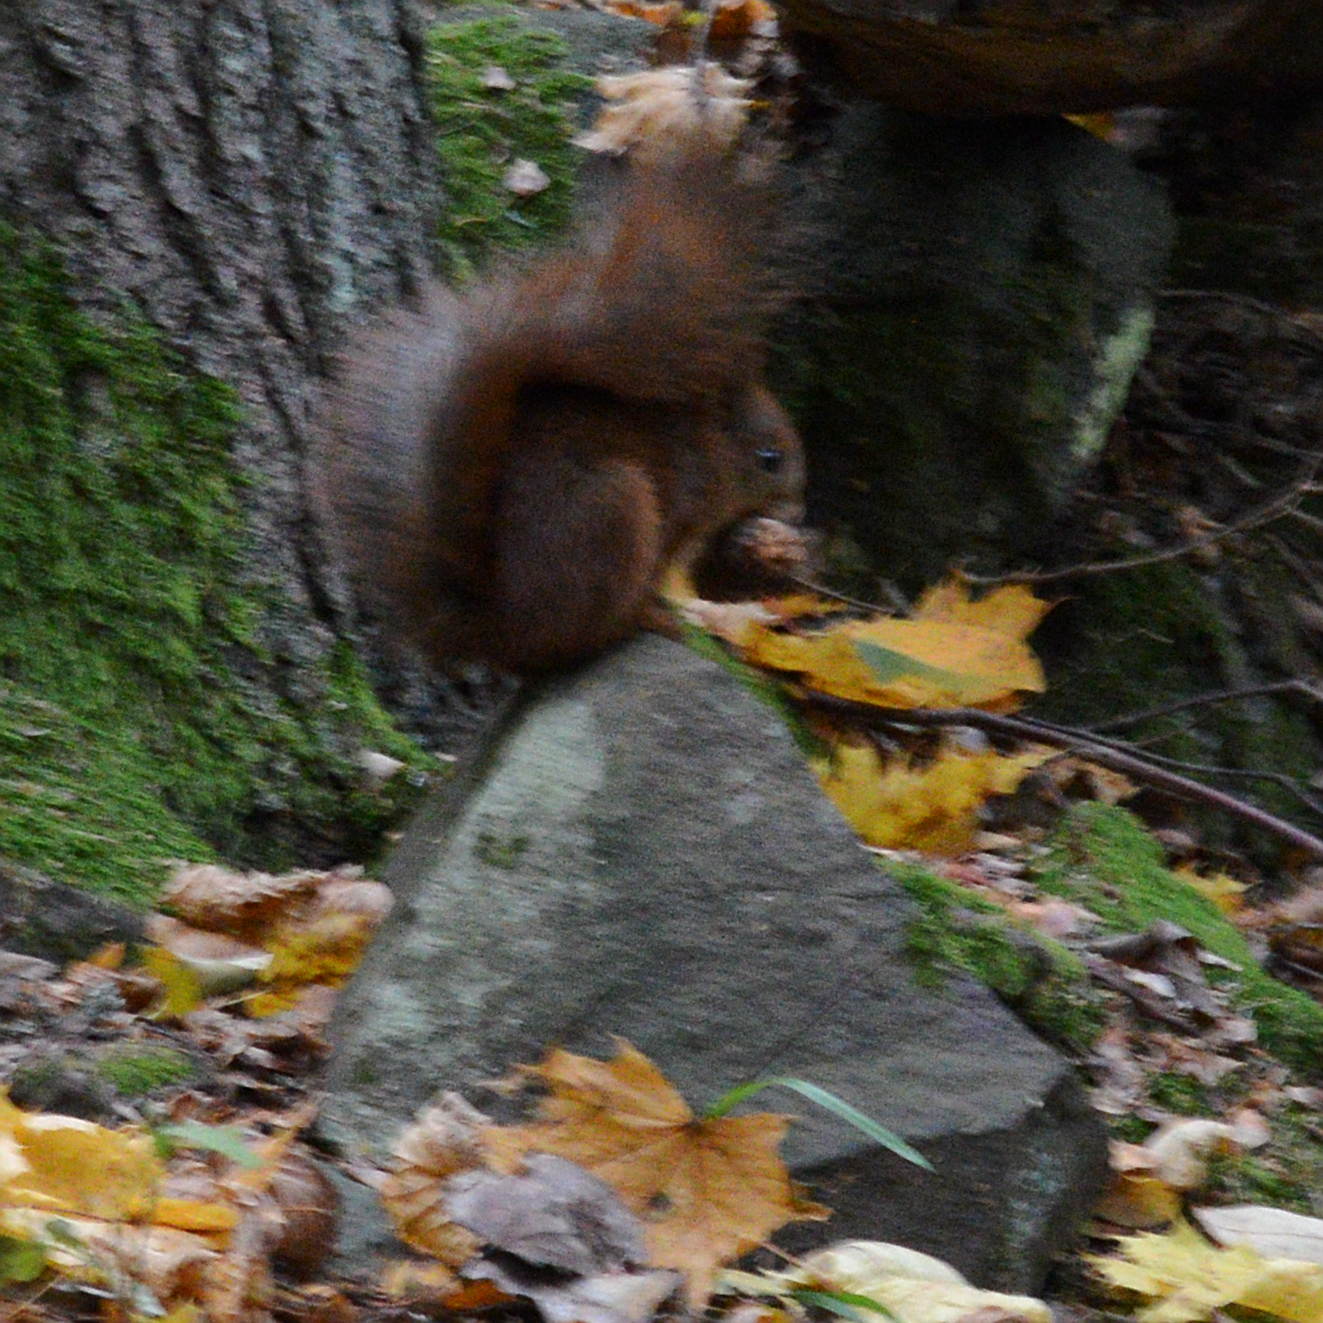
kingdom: Animalia
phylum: Chordata
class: Mammalia
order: Rodentia
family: Sciuridae
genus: Sciurus
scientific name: Sciurus vulgaris
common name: Eurasian red squirrel
